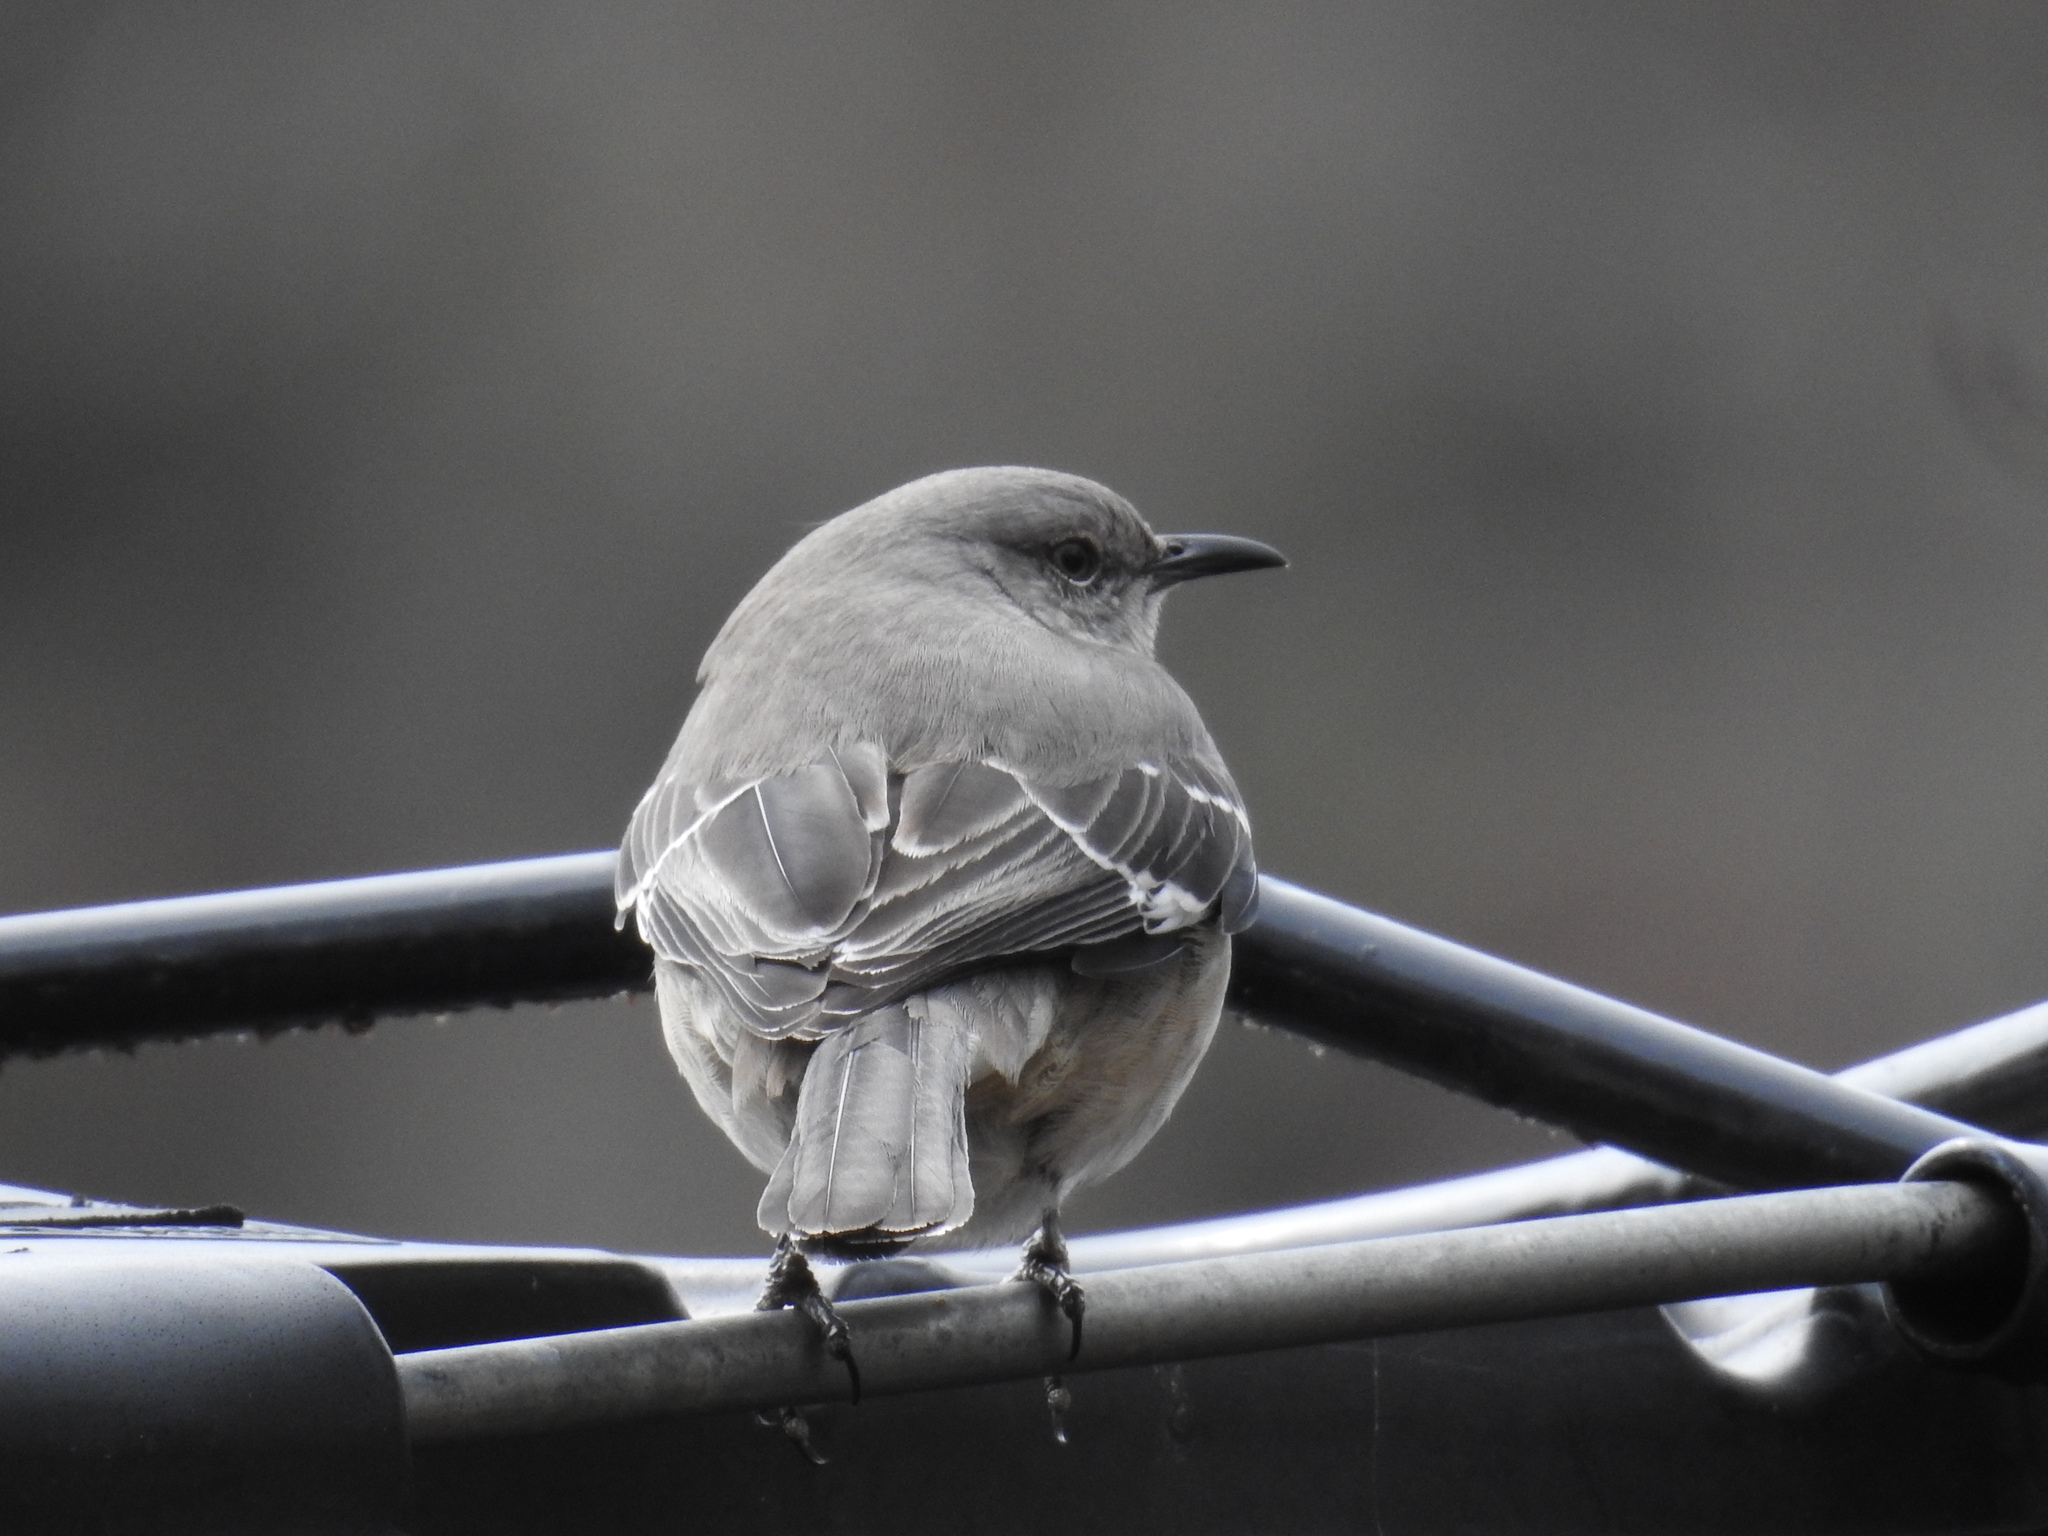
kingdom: Animalia
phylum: Chordata
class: Aves
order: Passeriformes
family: Mimidae
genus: Mimus
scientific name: Mimus polyglottos
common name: Northern mockingbird
